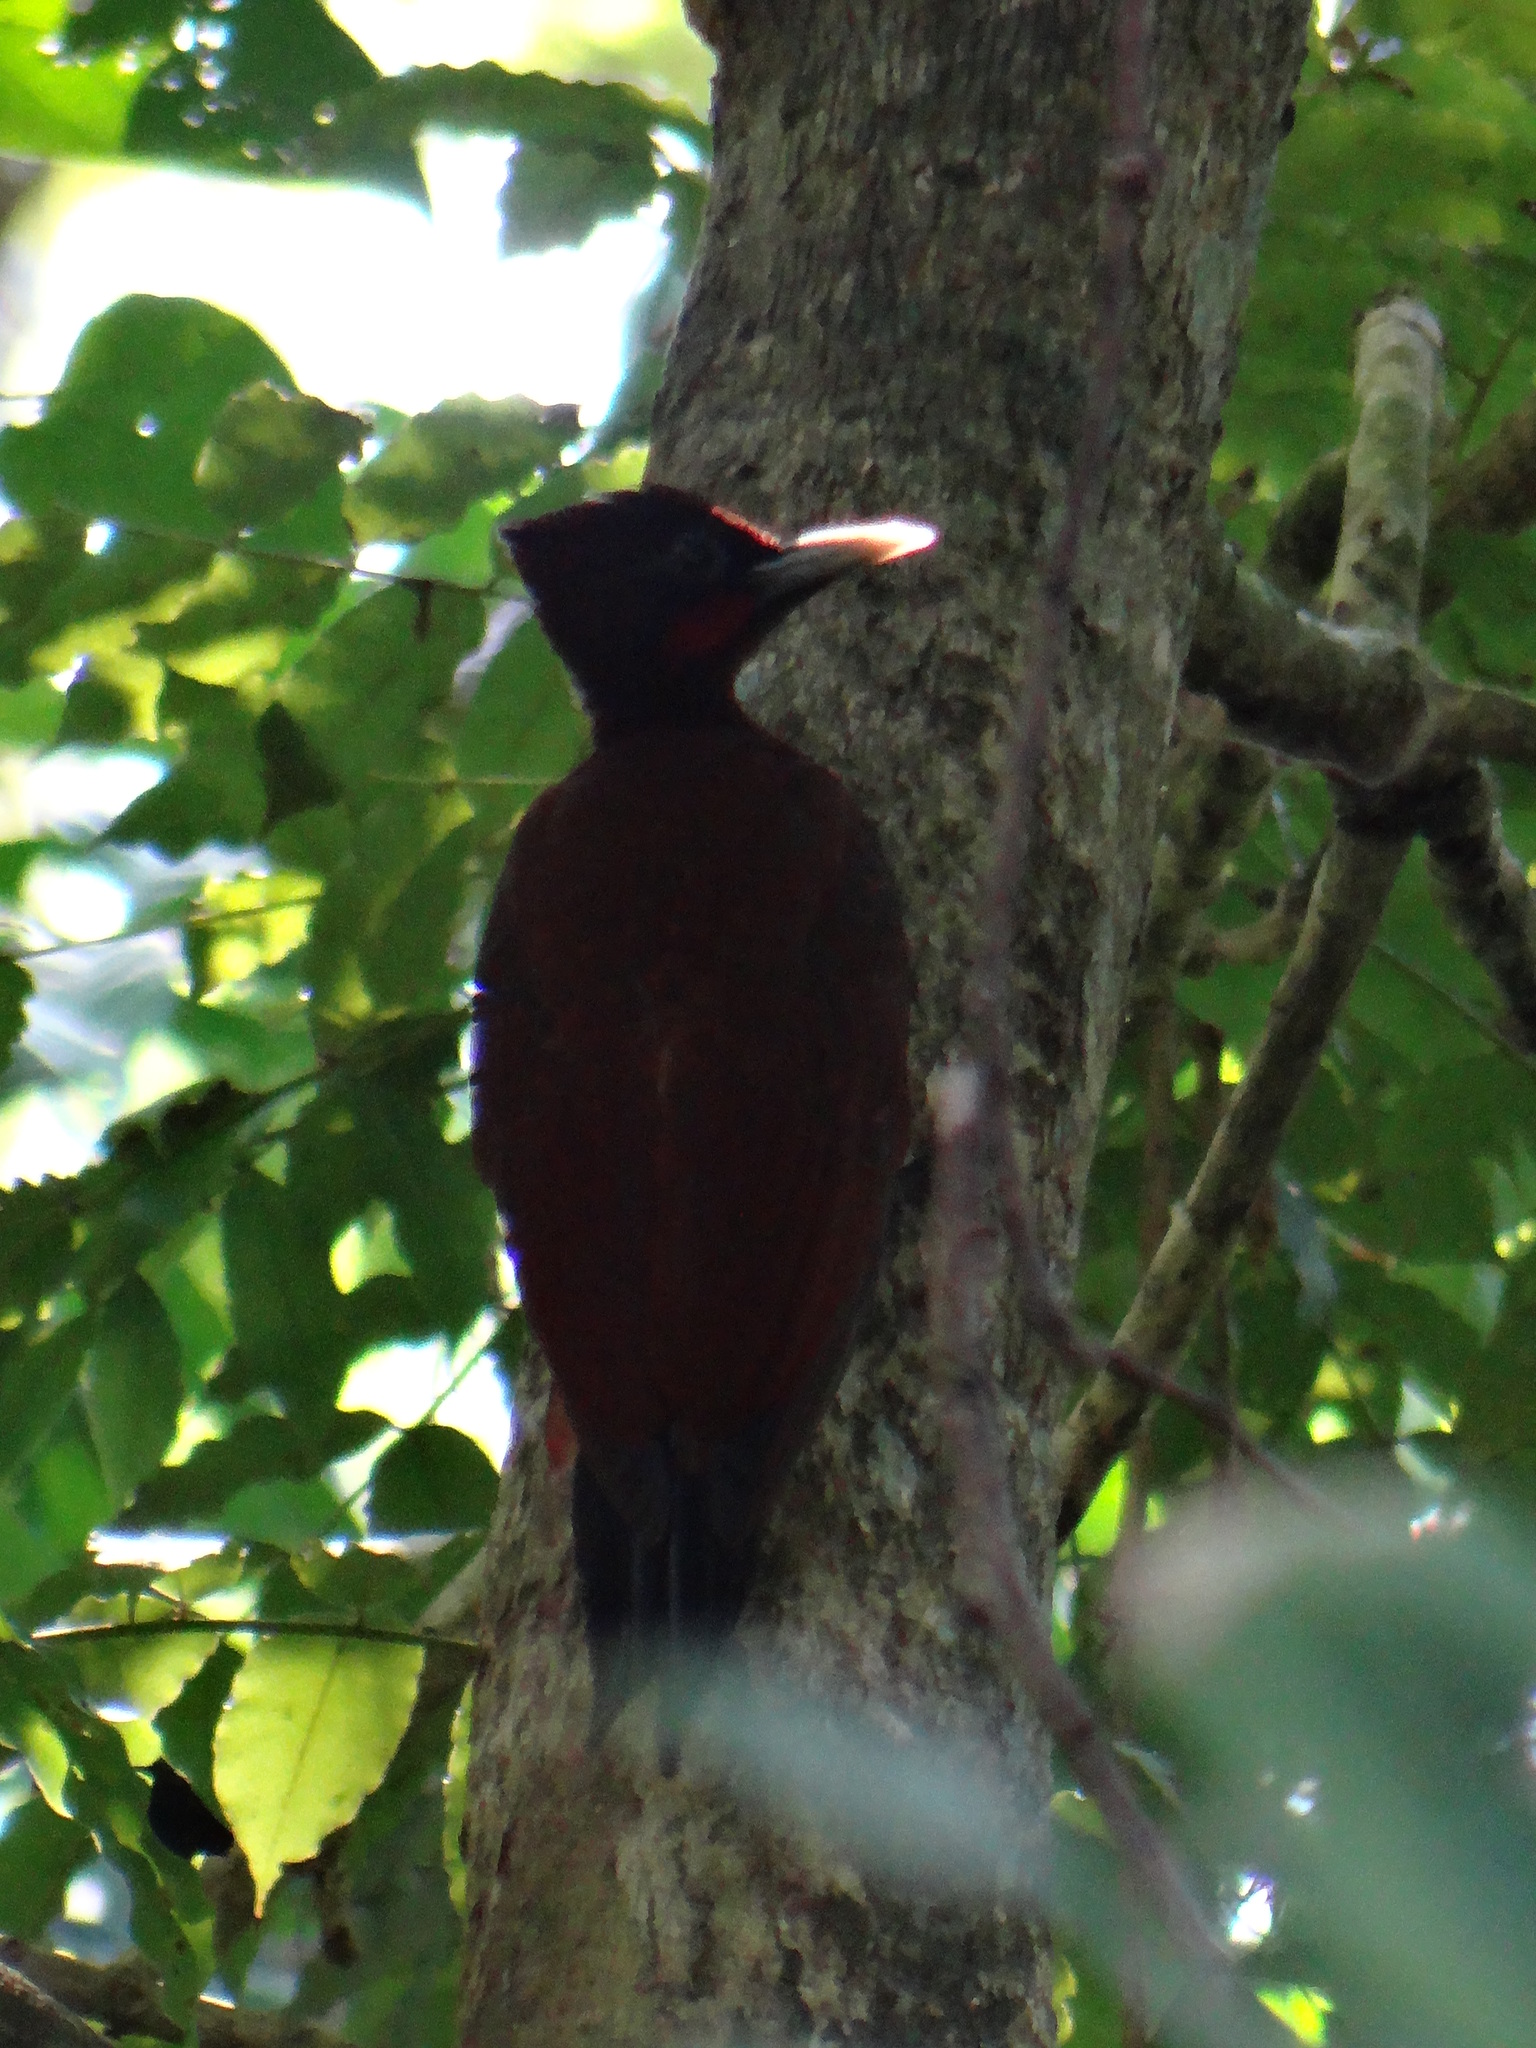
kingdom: Animalia
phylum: Chordata
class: Aves
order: Piciformes
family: Picidae
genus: Celeus
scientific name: Celeus elegans
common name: Chestnut woodpecker
